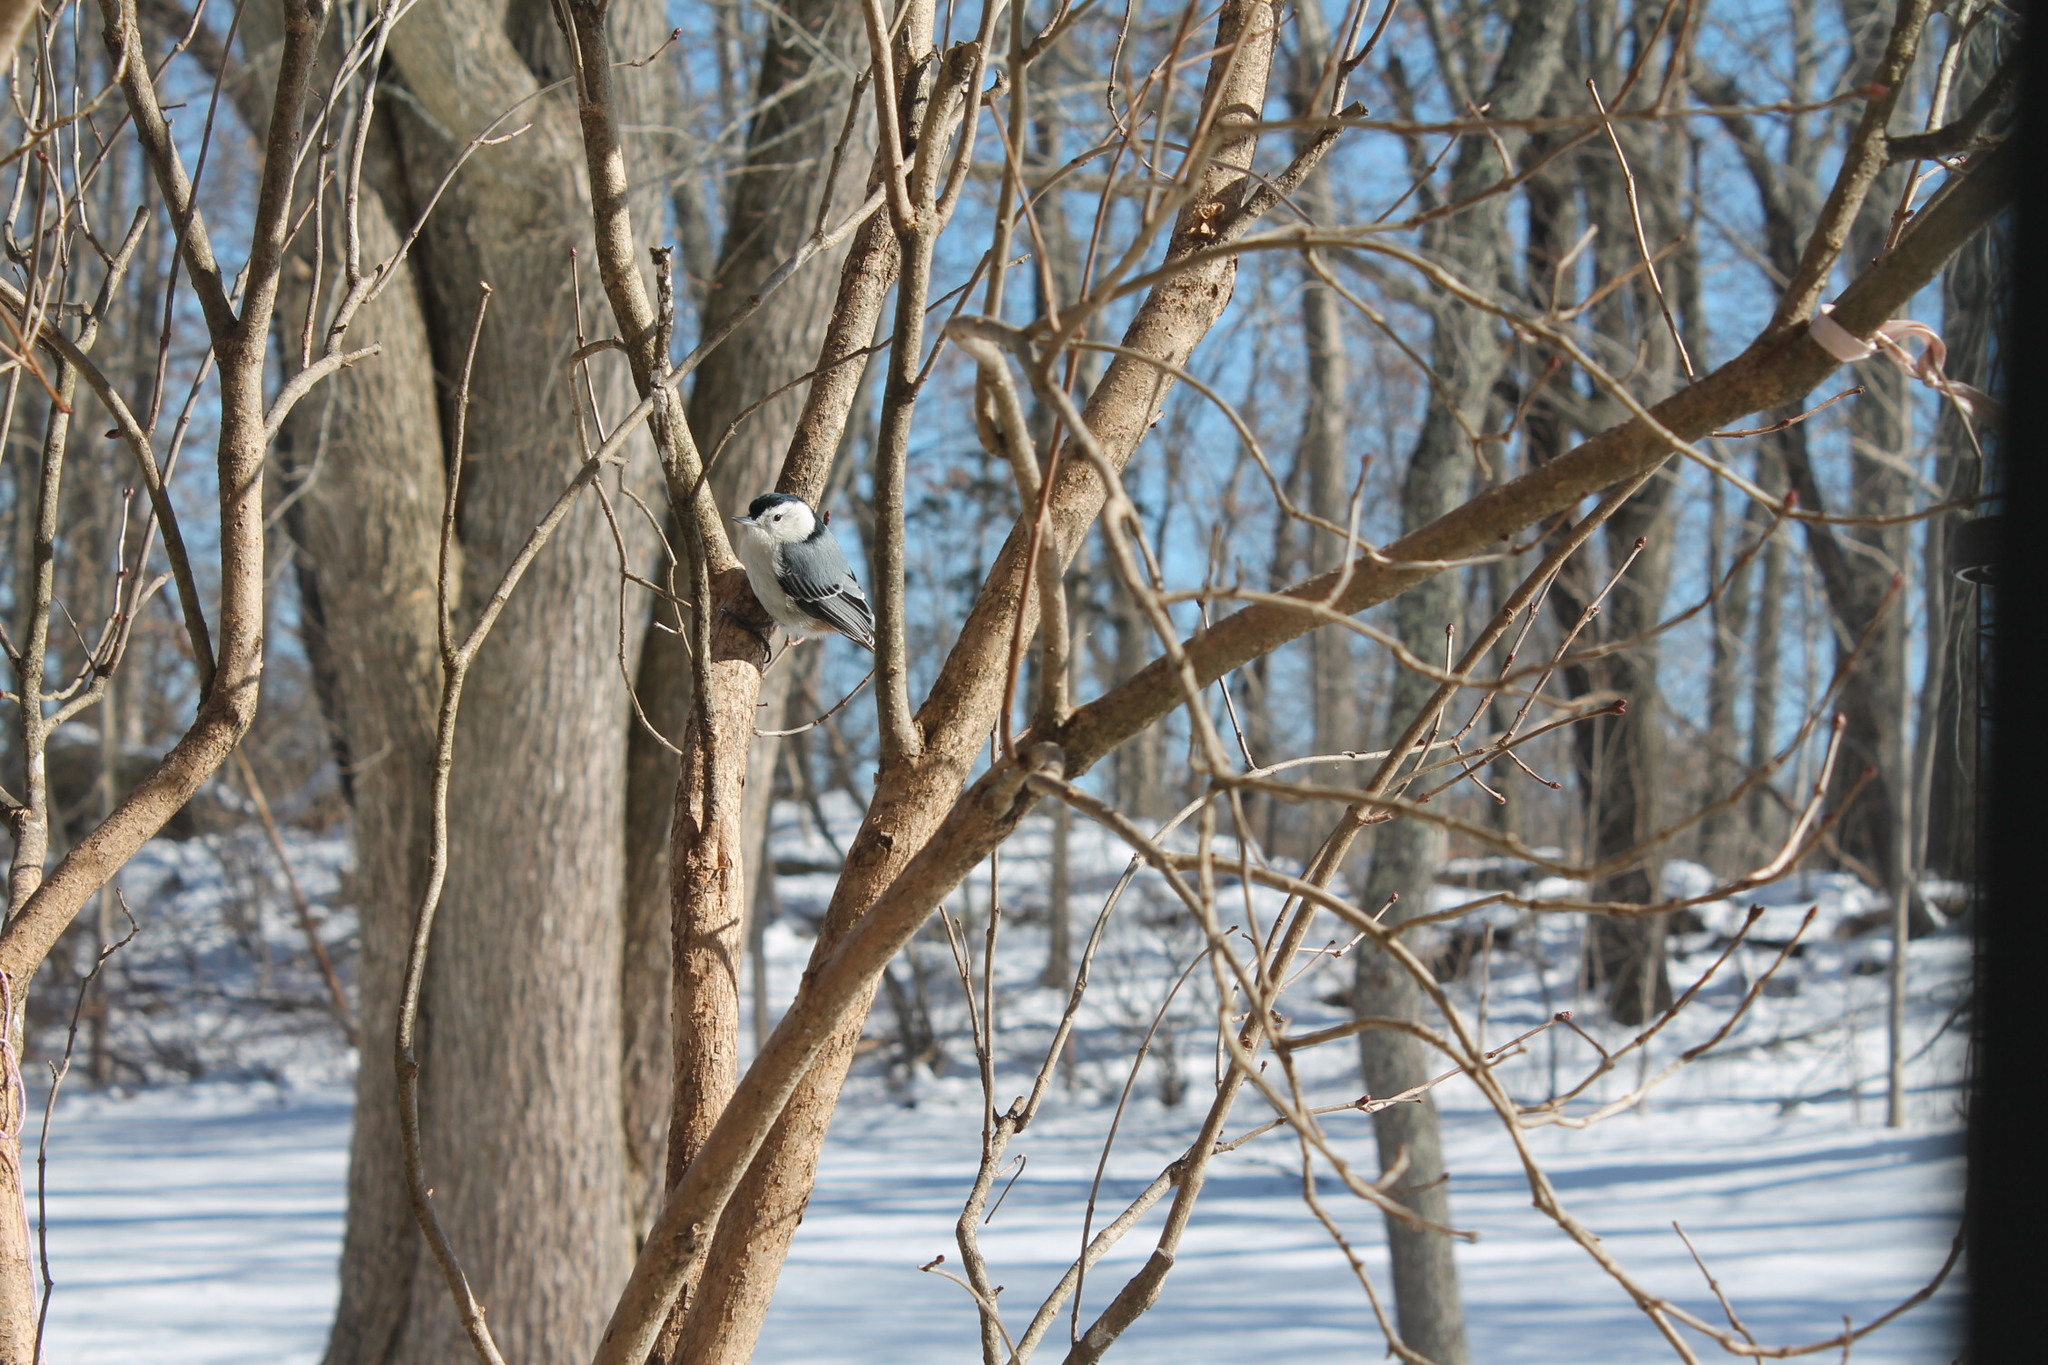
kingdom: Animalia
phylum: Chordata
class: Aves
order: Passeriformes
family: Sittidae
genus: Sitta
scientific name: Sitta carolinensis
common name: White-breasted nuthatch
